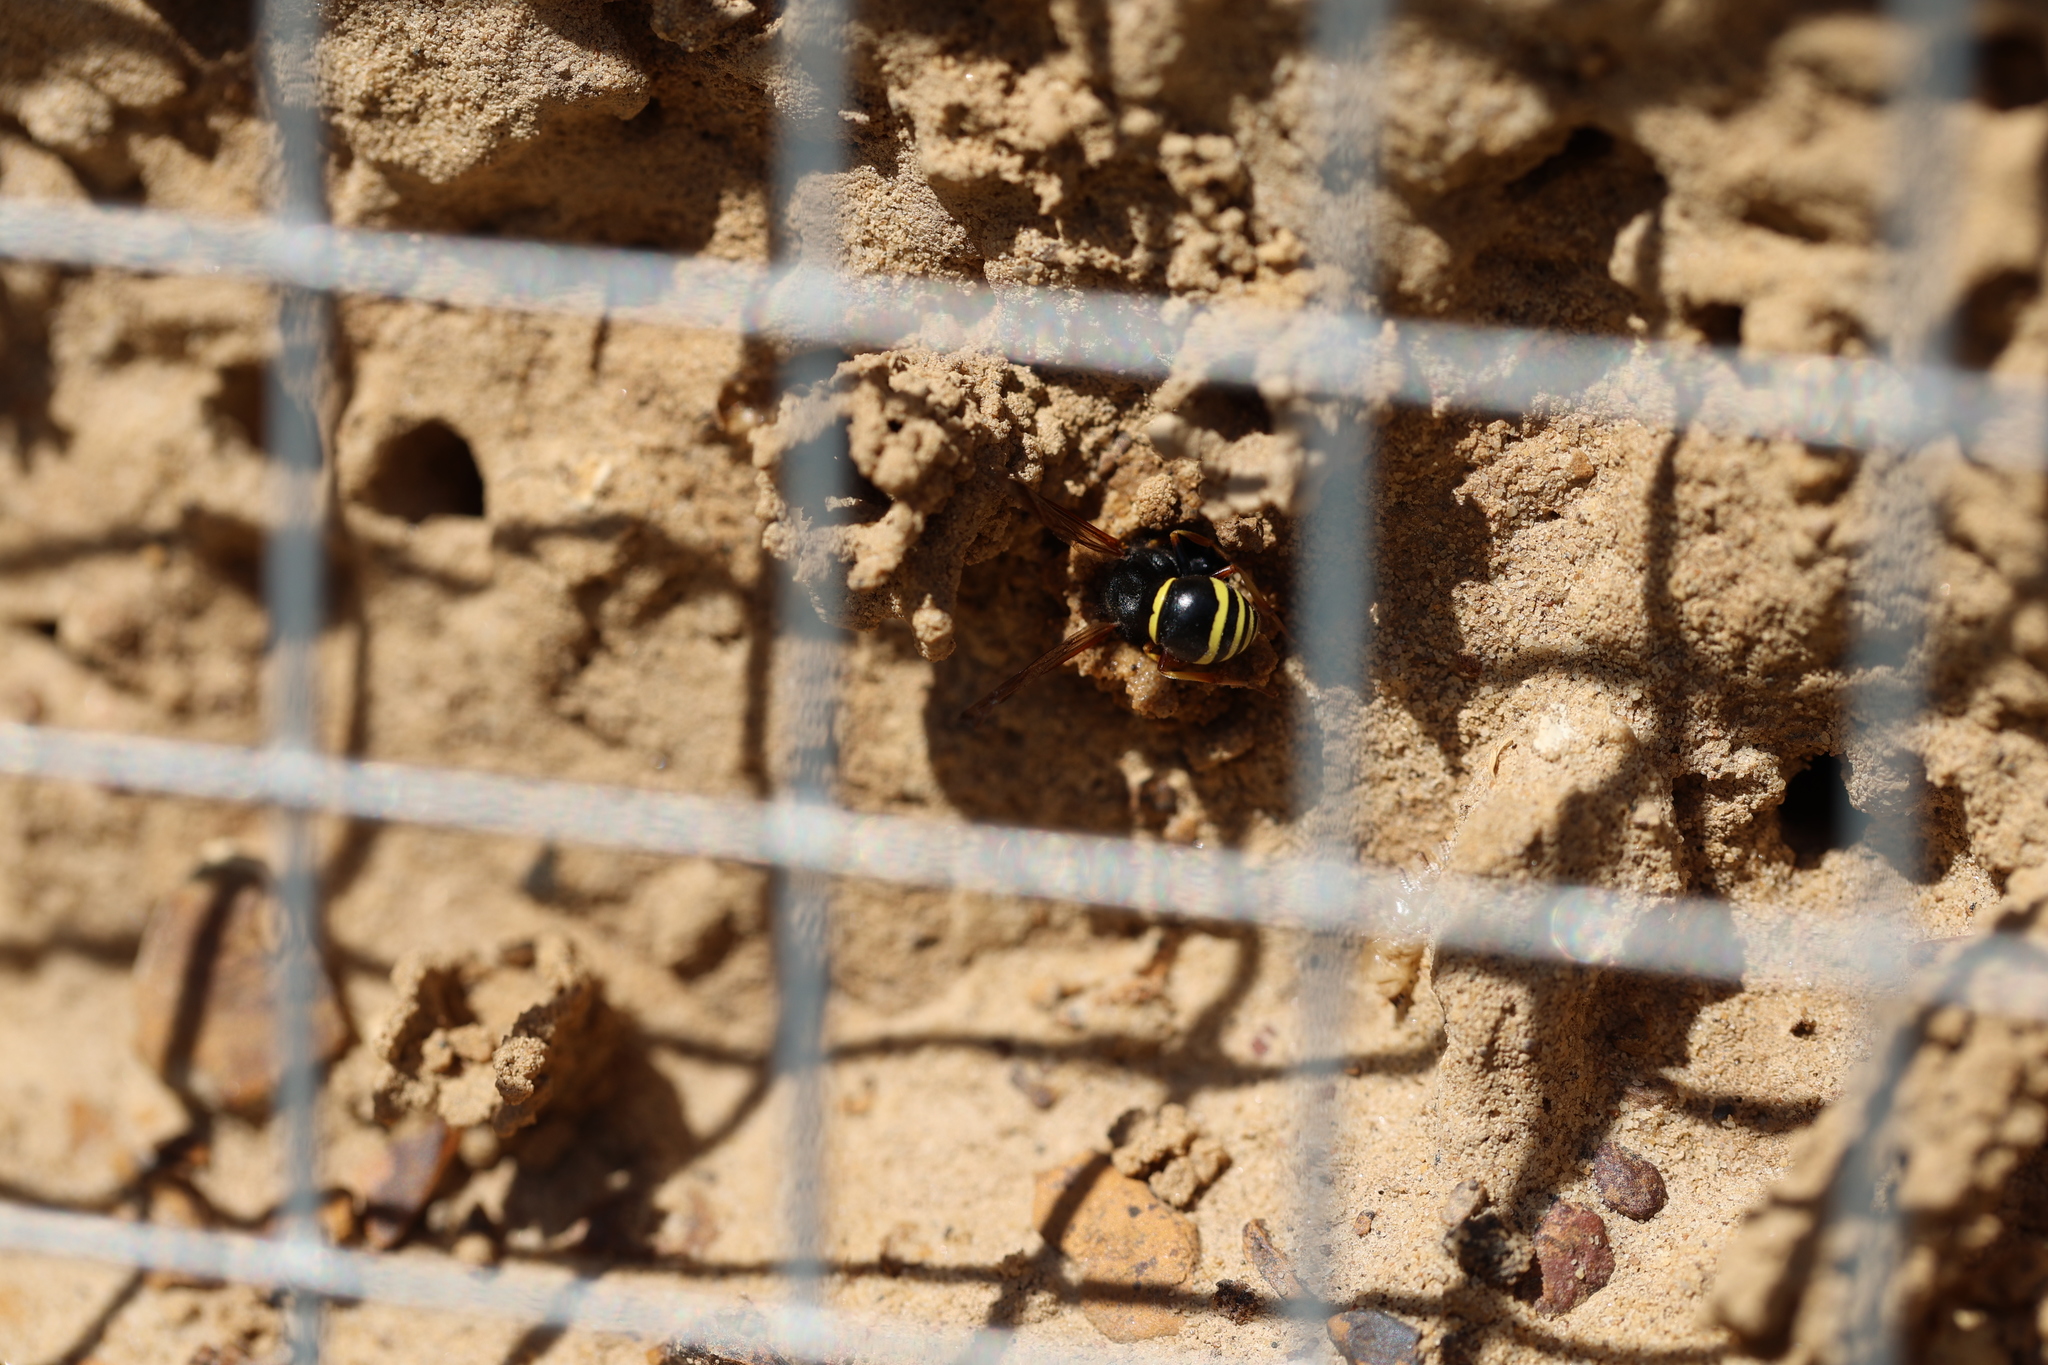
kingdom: Animalia
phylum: Arthropoda
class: Insecta
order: Hymenoptera
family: Vespidae
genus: Odynerus
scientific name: Odynerus spinipes
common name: Spiny mason wasp
